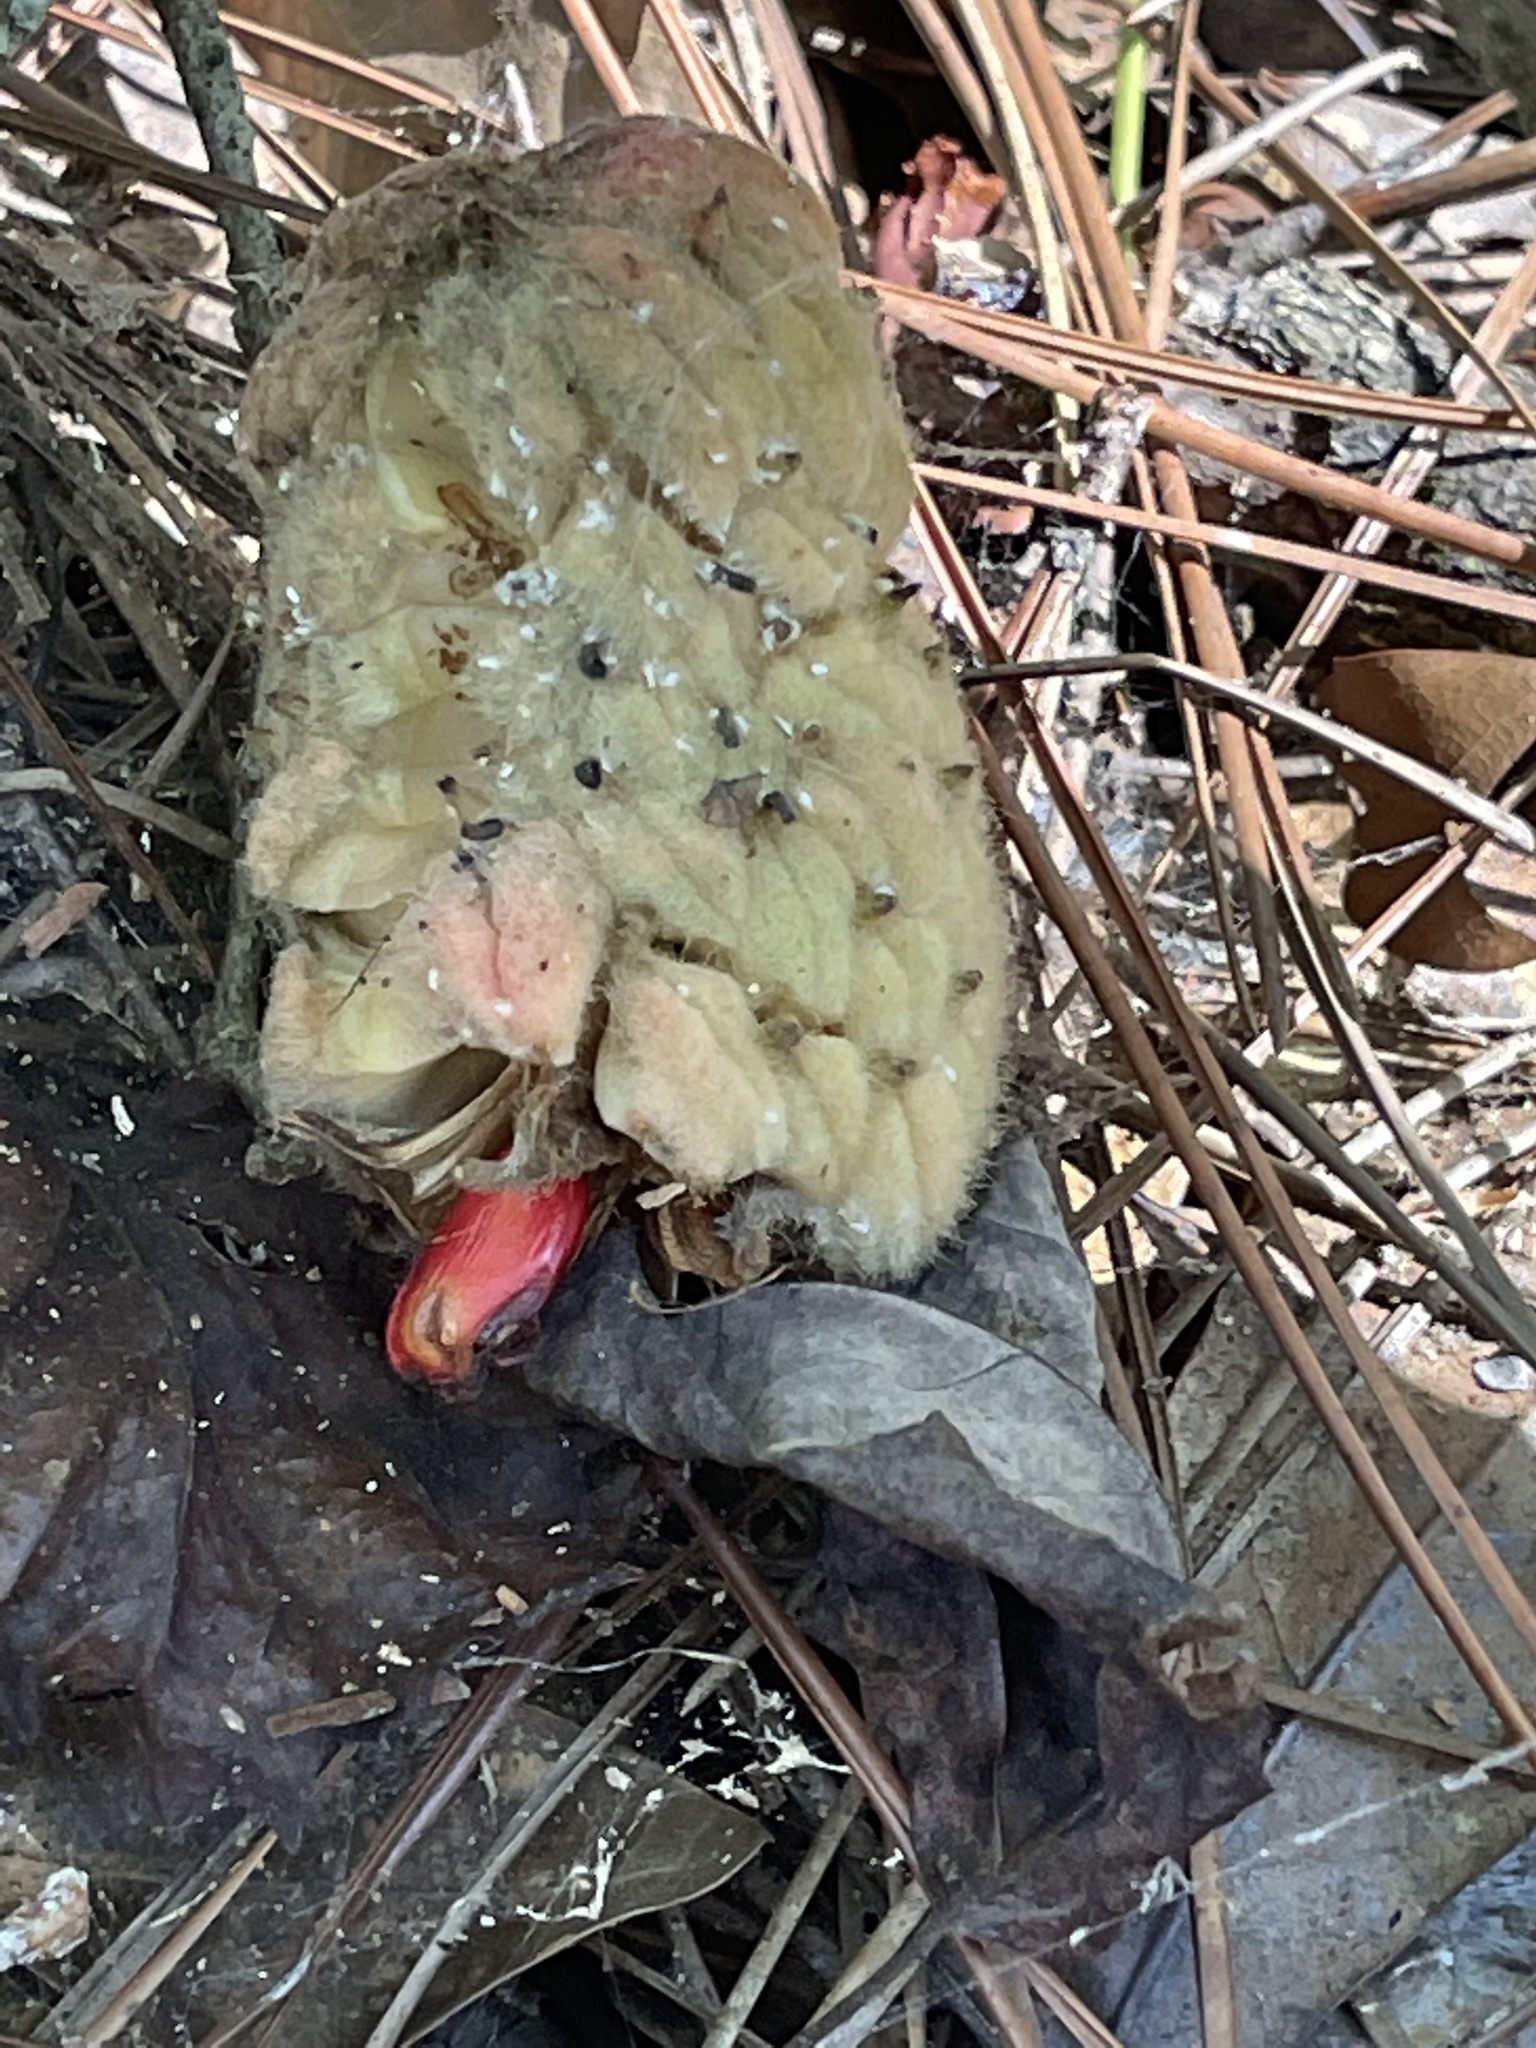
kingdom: Plantae
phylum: Tracheophyta
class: Magnoliopsida
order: Magnoliales
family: Magnoliaceae
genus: Magnolia
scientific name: Magnolia grandiflora
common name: Southern magnolia
